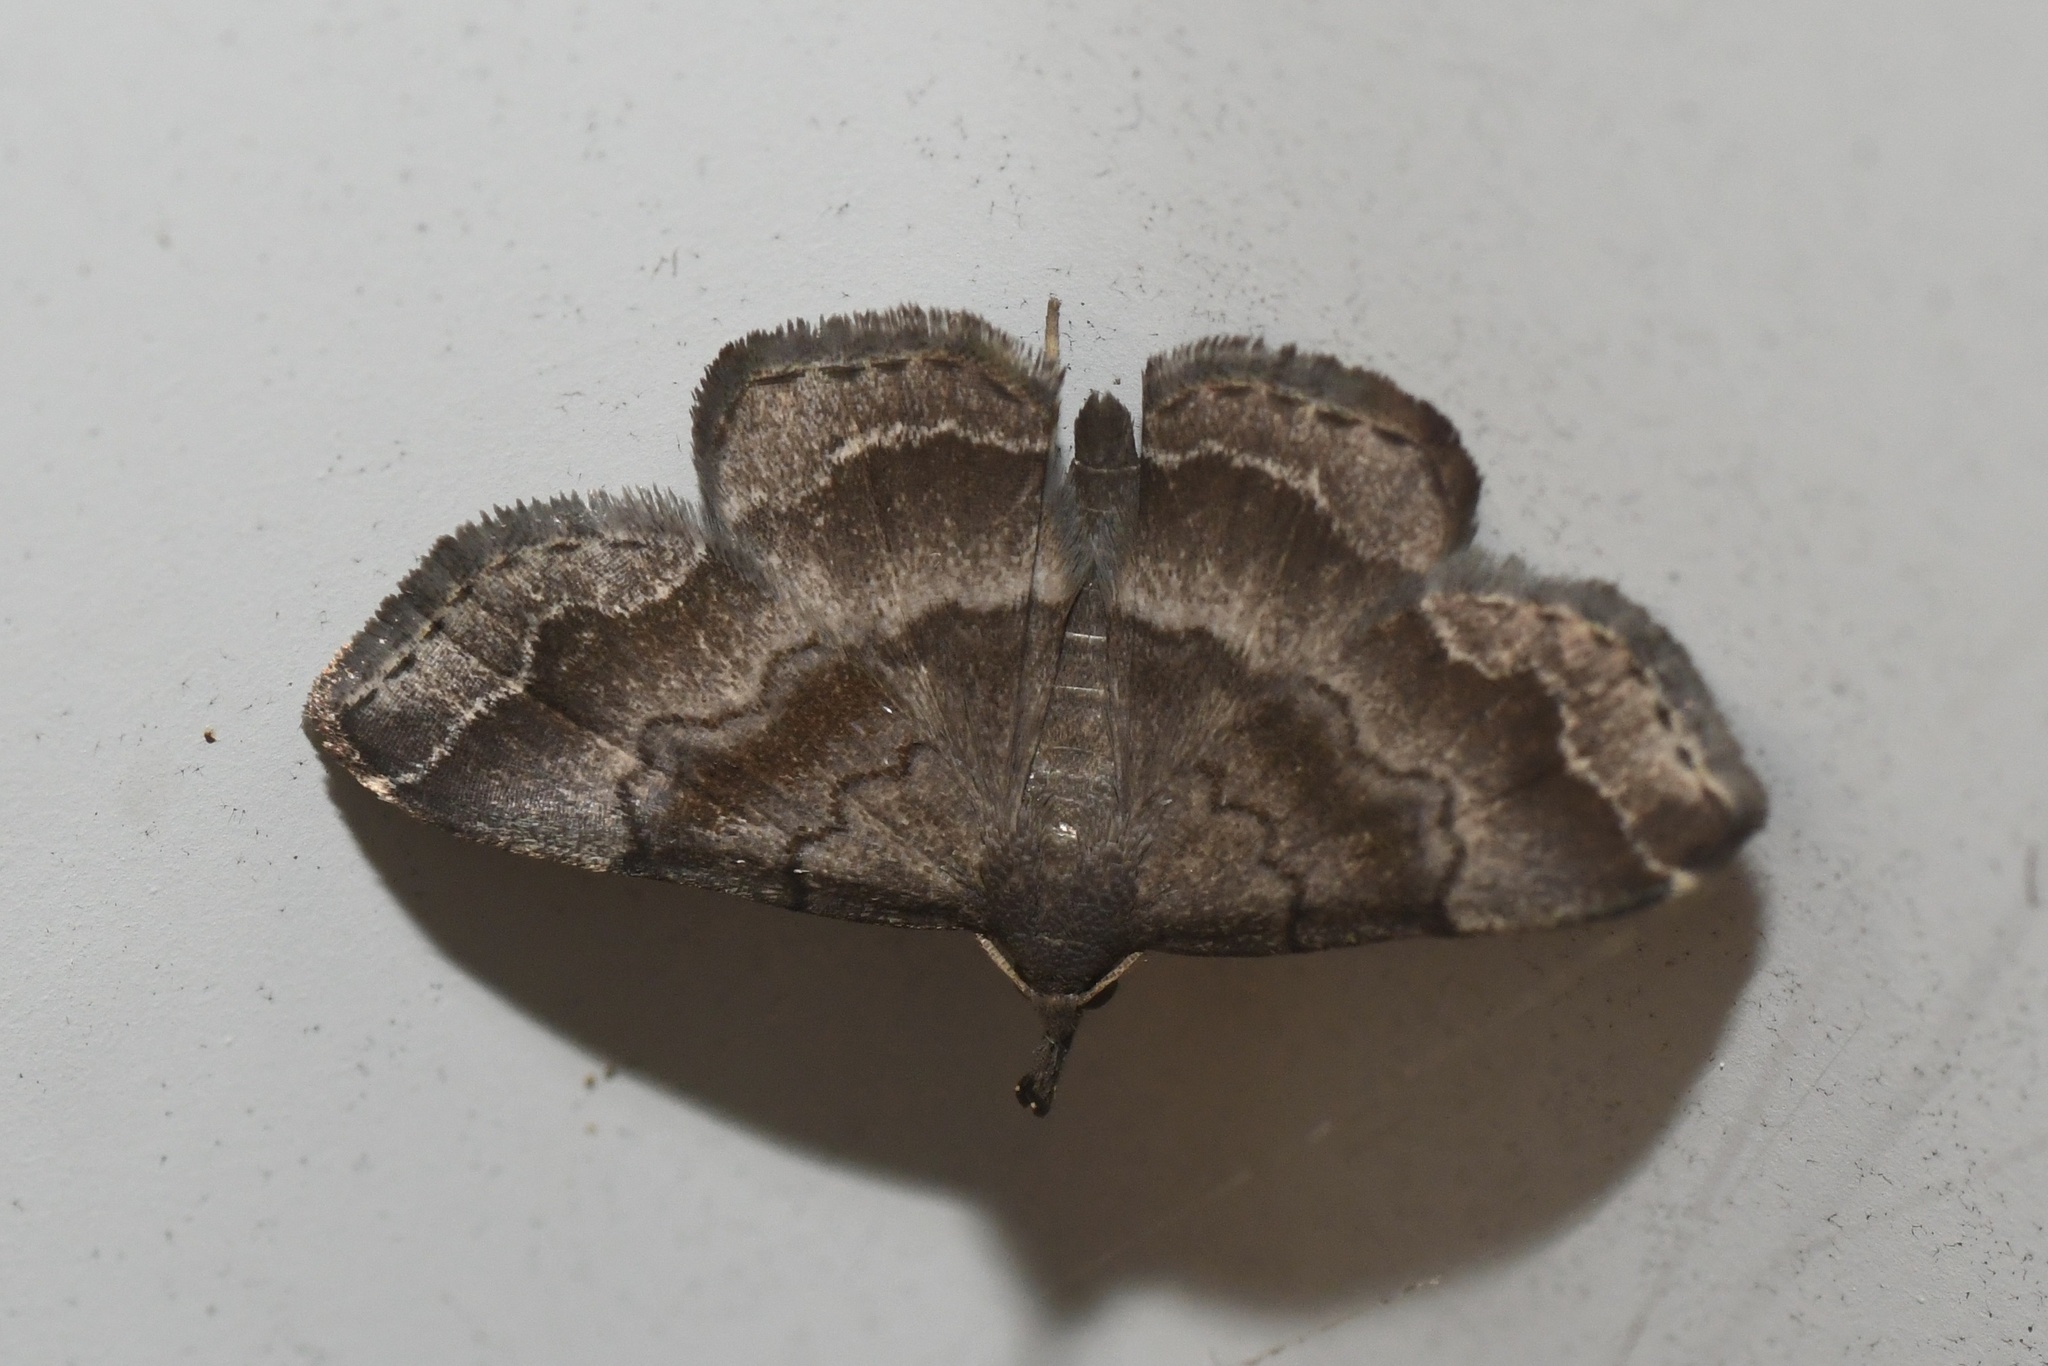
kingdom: Animalia
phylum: Arthropoda
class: Insecta
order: Lepidoptera
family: Erebidae
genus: Phalaenostola
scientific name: Phalaenostola larentioides
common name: Black-banded owlet
